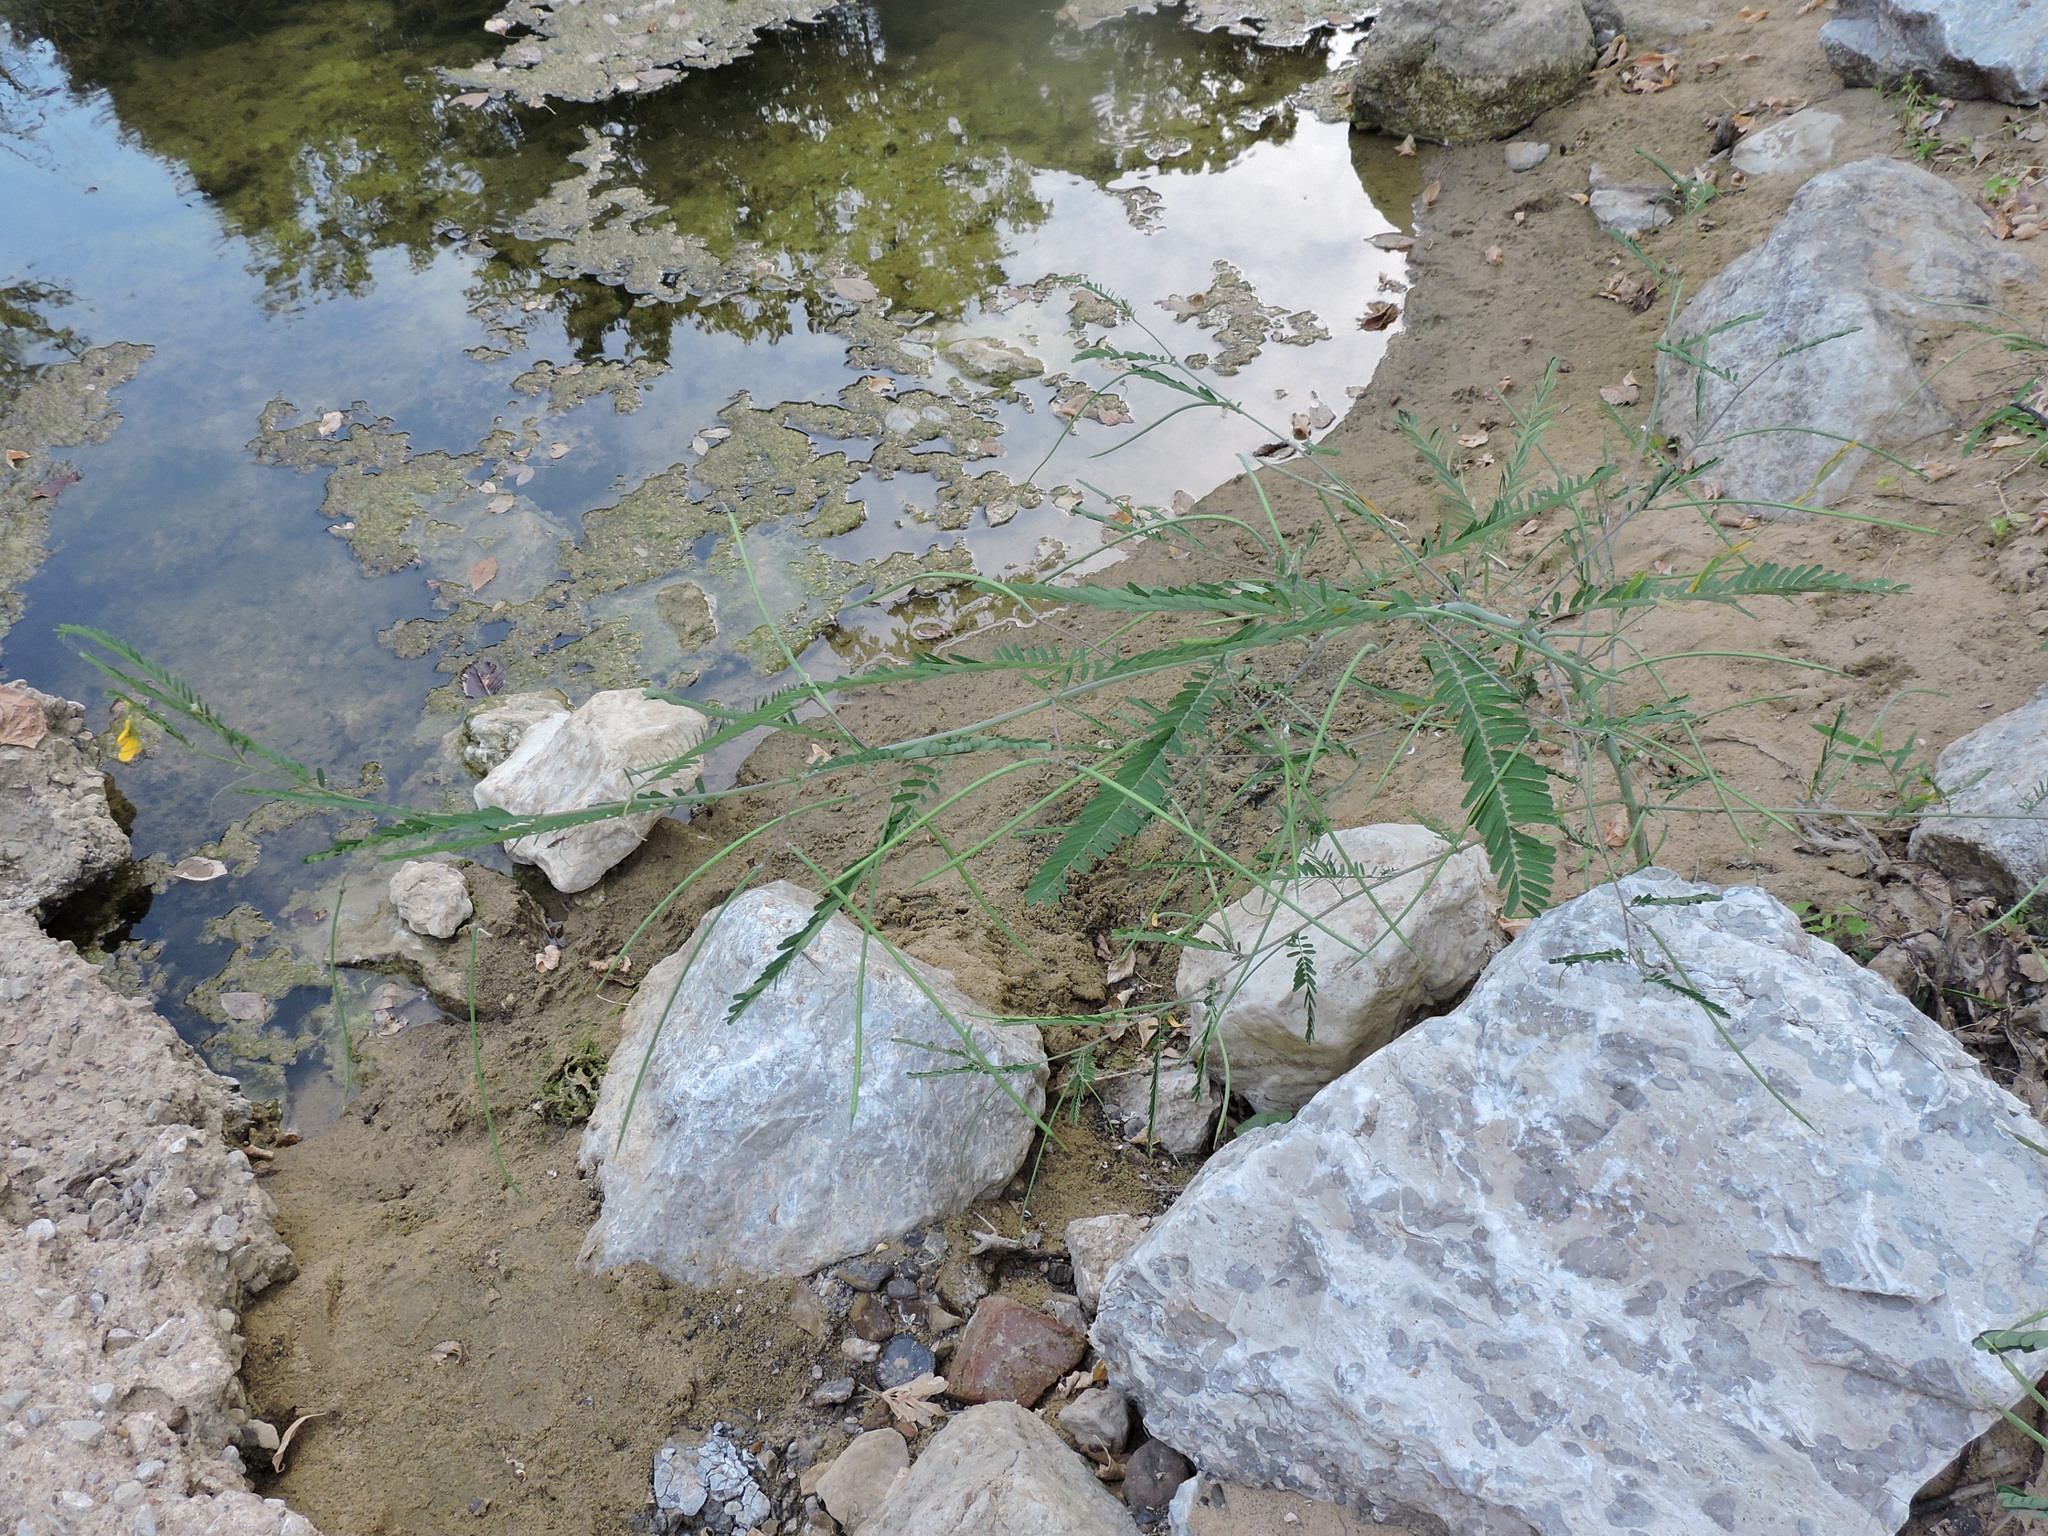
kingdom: Plantae
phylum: Tracheophyta
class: Magnoliopsida
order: Fabales
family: Fabaceae
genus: Sesbania
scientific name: Sesbania herbacea
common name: Bigpod sesbania
